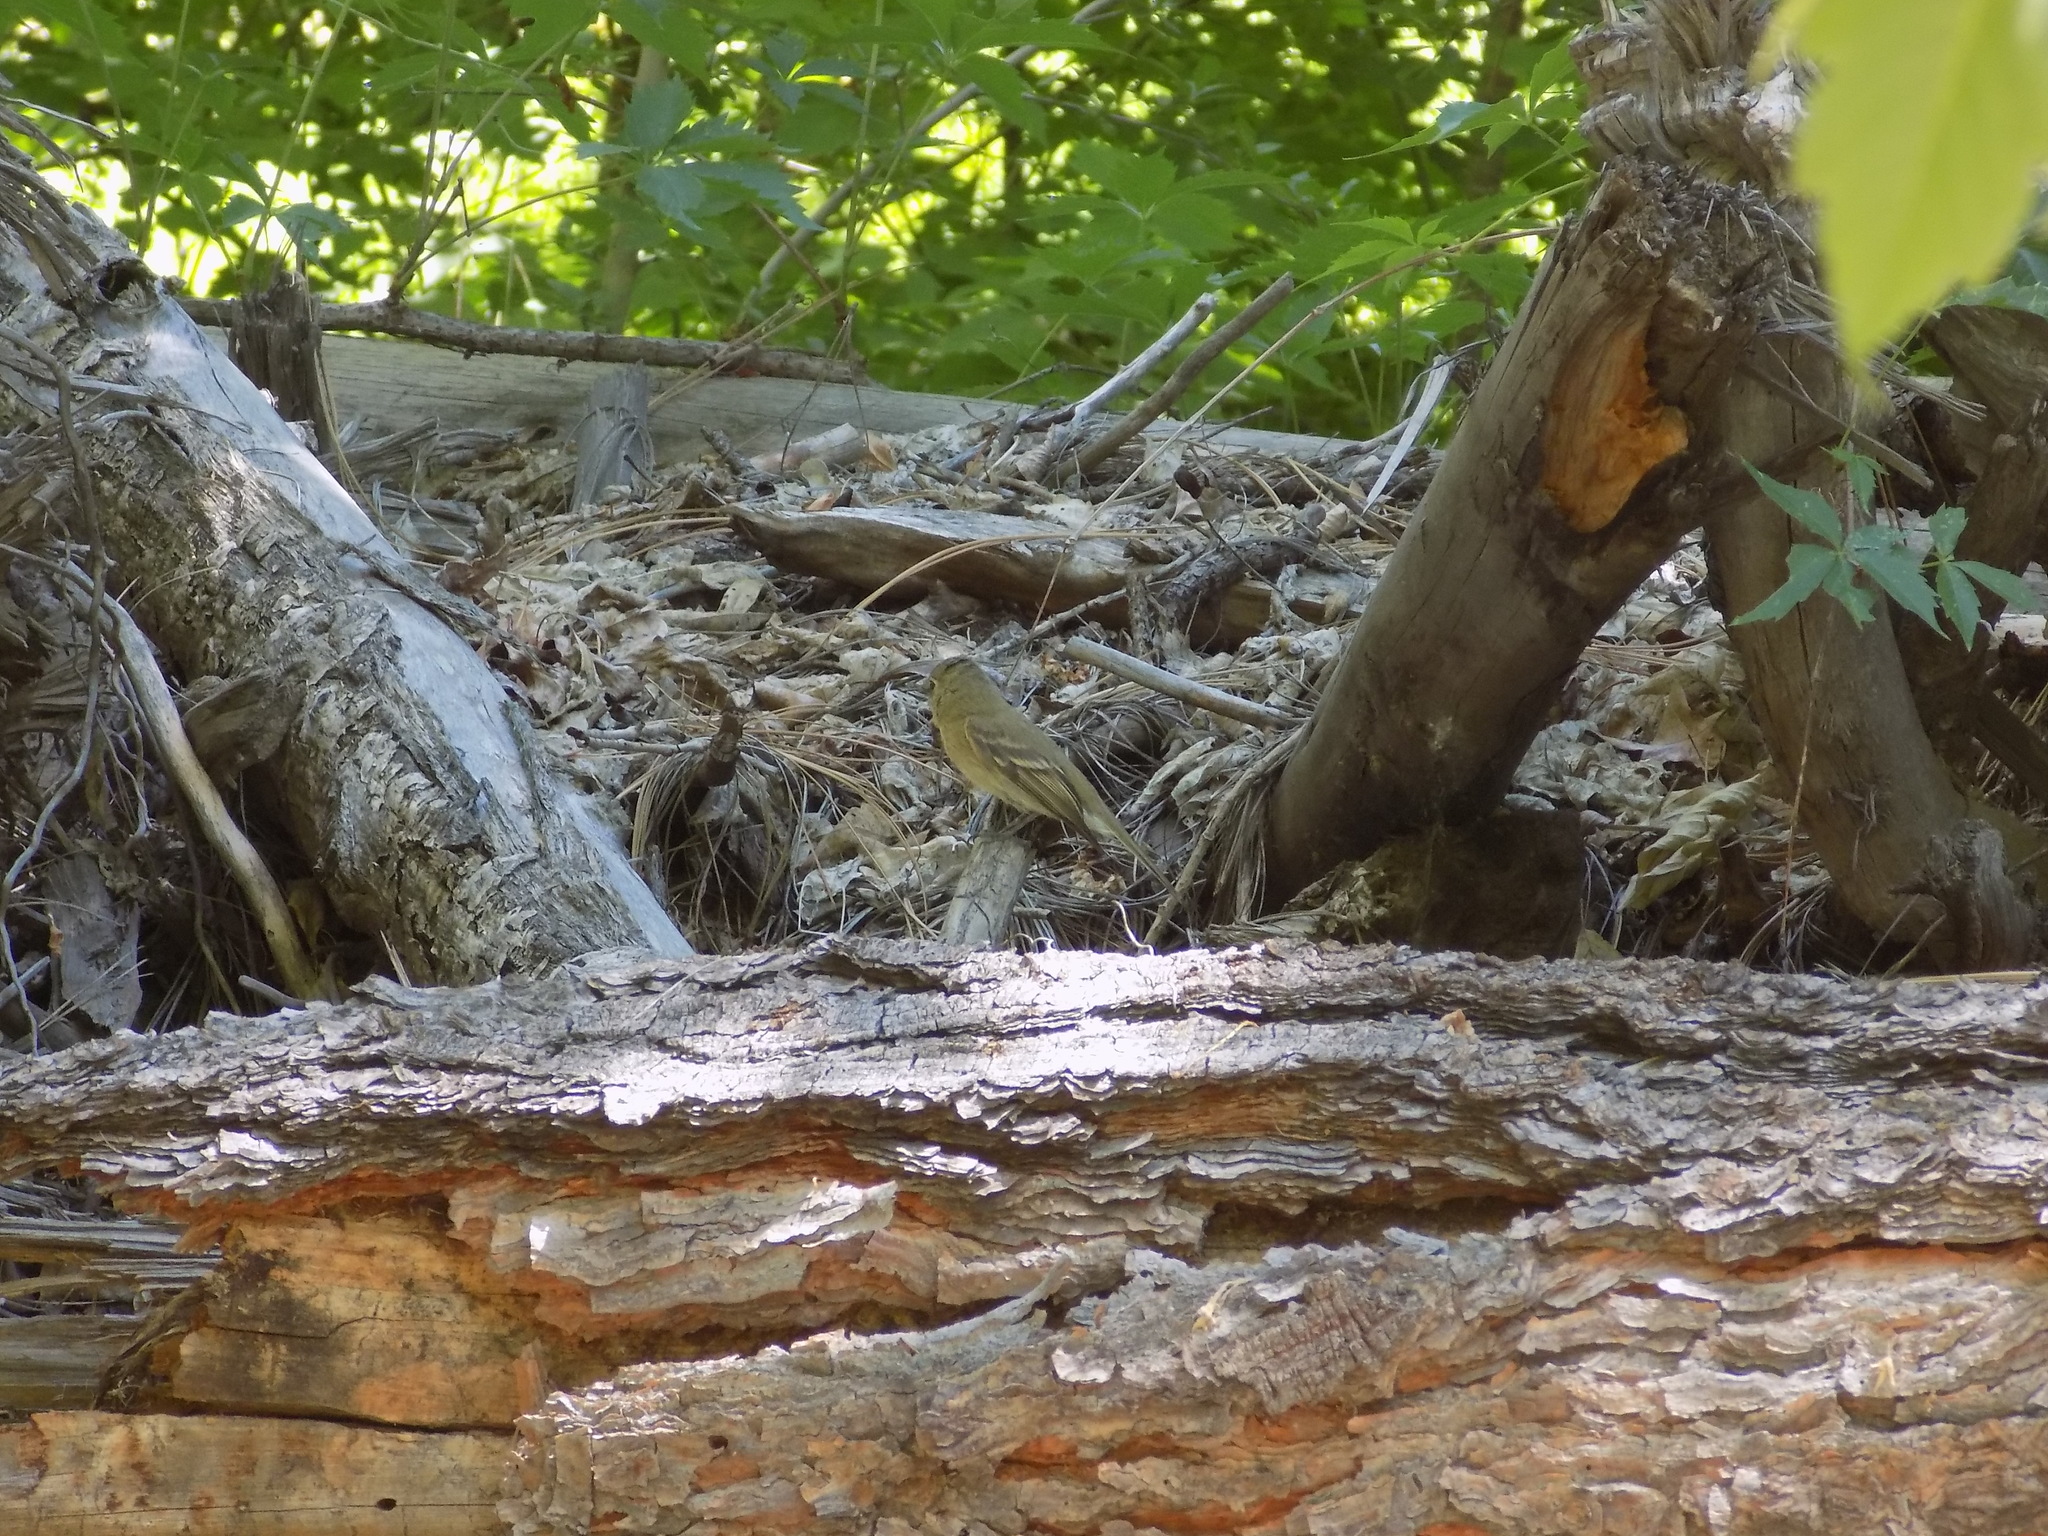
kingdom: Animalia
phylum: Chordata
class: Aves
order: Passeriformes
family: Tyrannidae
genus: Empidonax
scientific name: Empidonax difficilis
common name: Pacific-slope flycatcher
